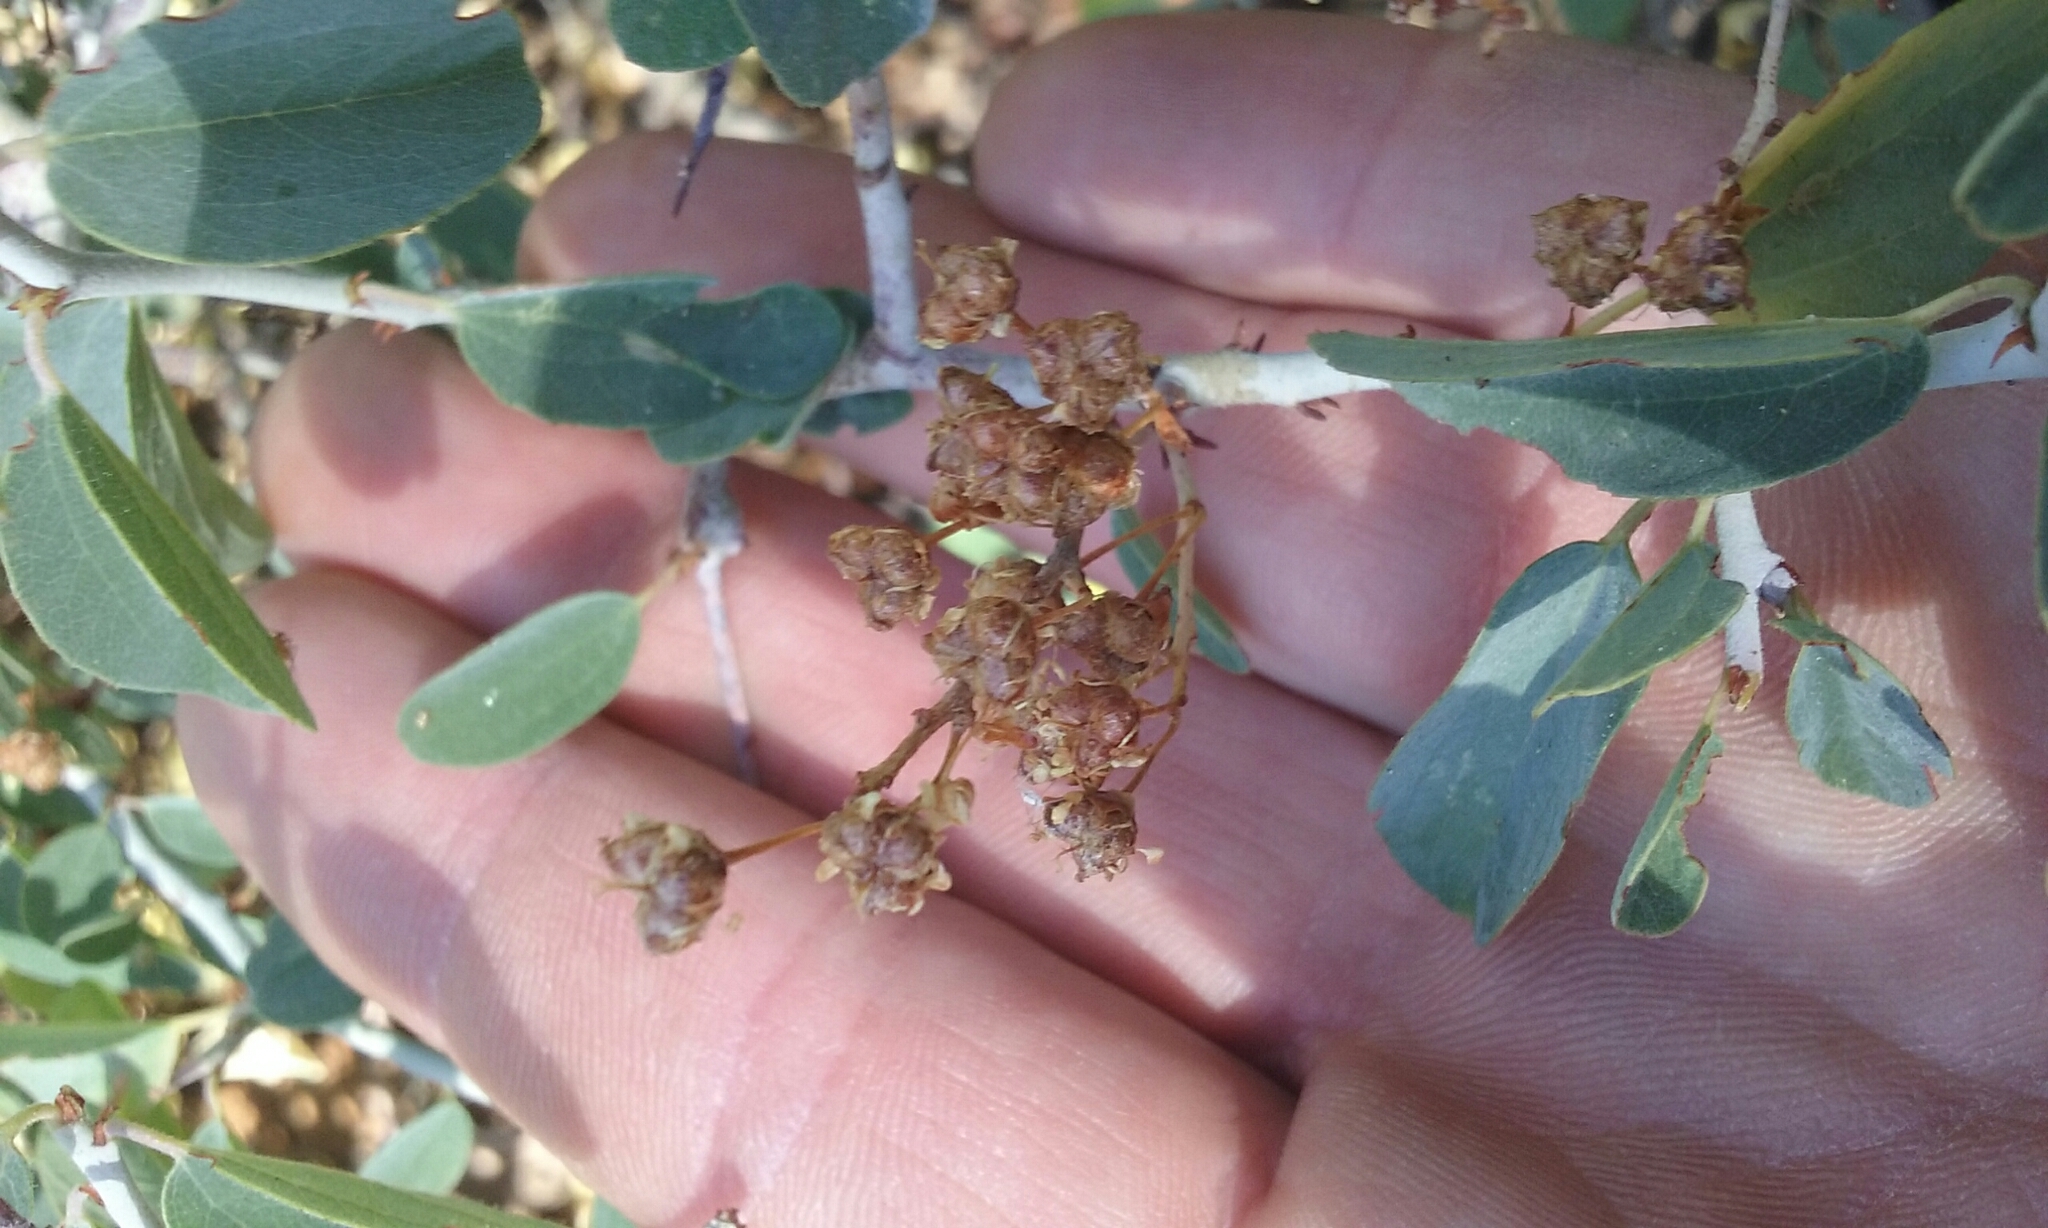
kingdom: Plantae
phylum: Tracheophyta
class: Magnoliopsida
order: Rosales
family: Rhamnaceae
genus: Ceanothus
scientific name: Ceanothus cordulatus
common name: Mountain whitethorn
